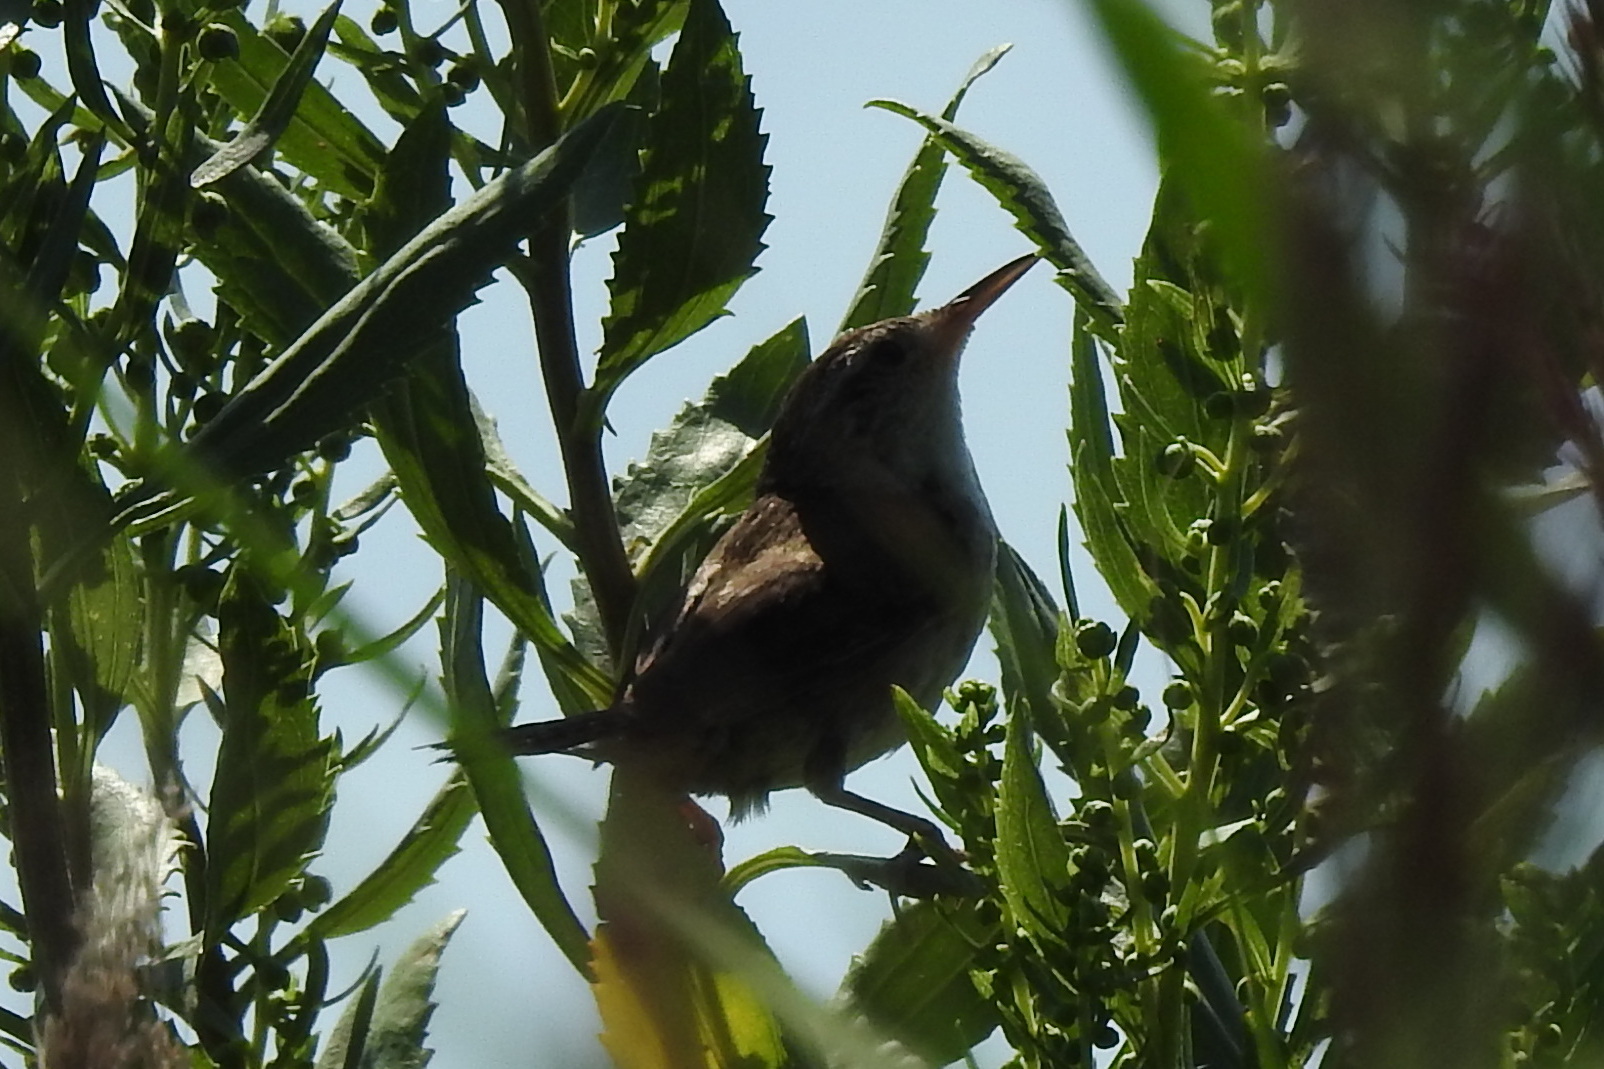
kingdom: Animalia
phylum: Chordata
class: Aves
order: Passeriformes
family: Troglodytidae
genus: Cistothorus
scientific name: Cistothorus palustris
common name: Marsh wren
